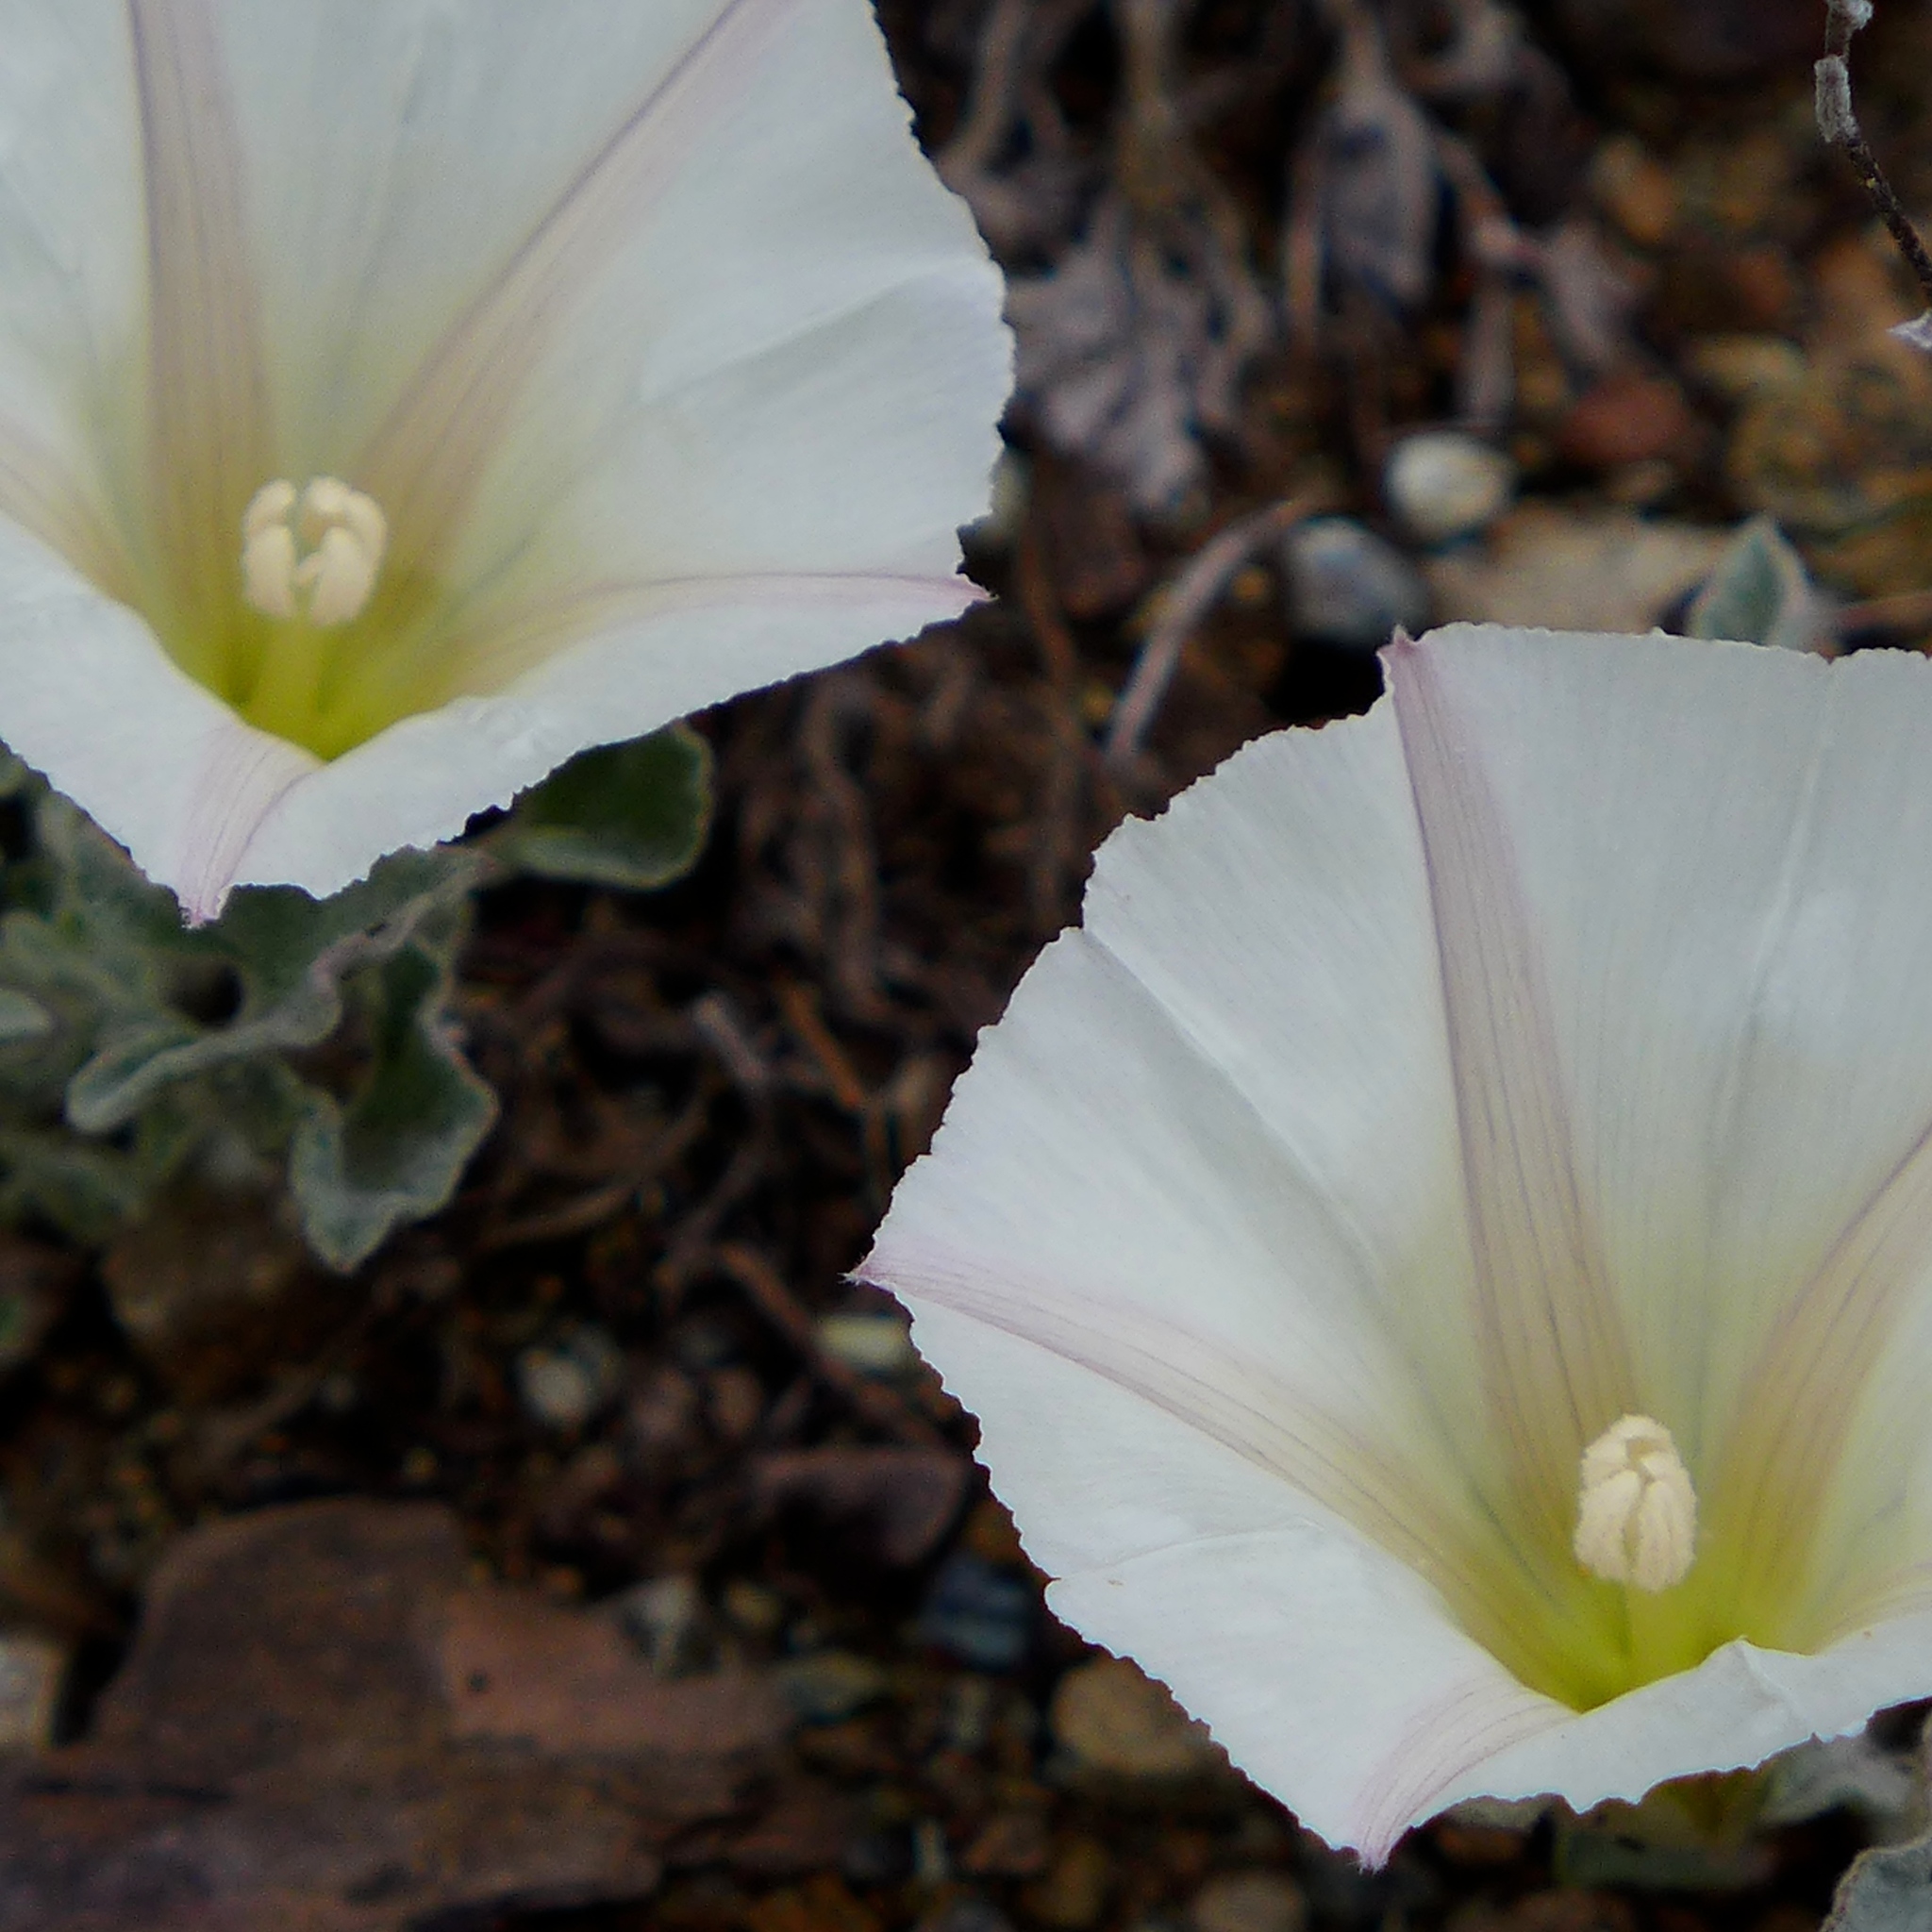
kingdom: Plantae
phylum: Tracheophyta
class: Magnoliopsida
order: Solanales
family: Convolvulaceae
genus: Calystegia
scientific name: Calystegia collina
